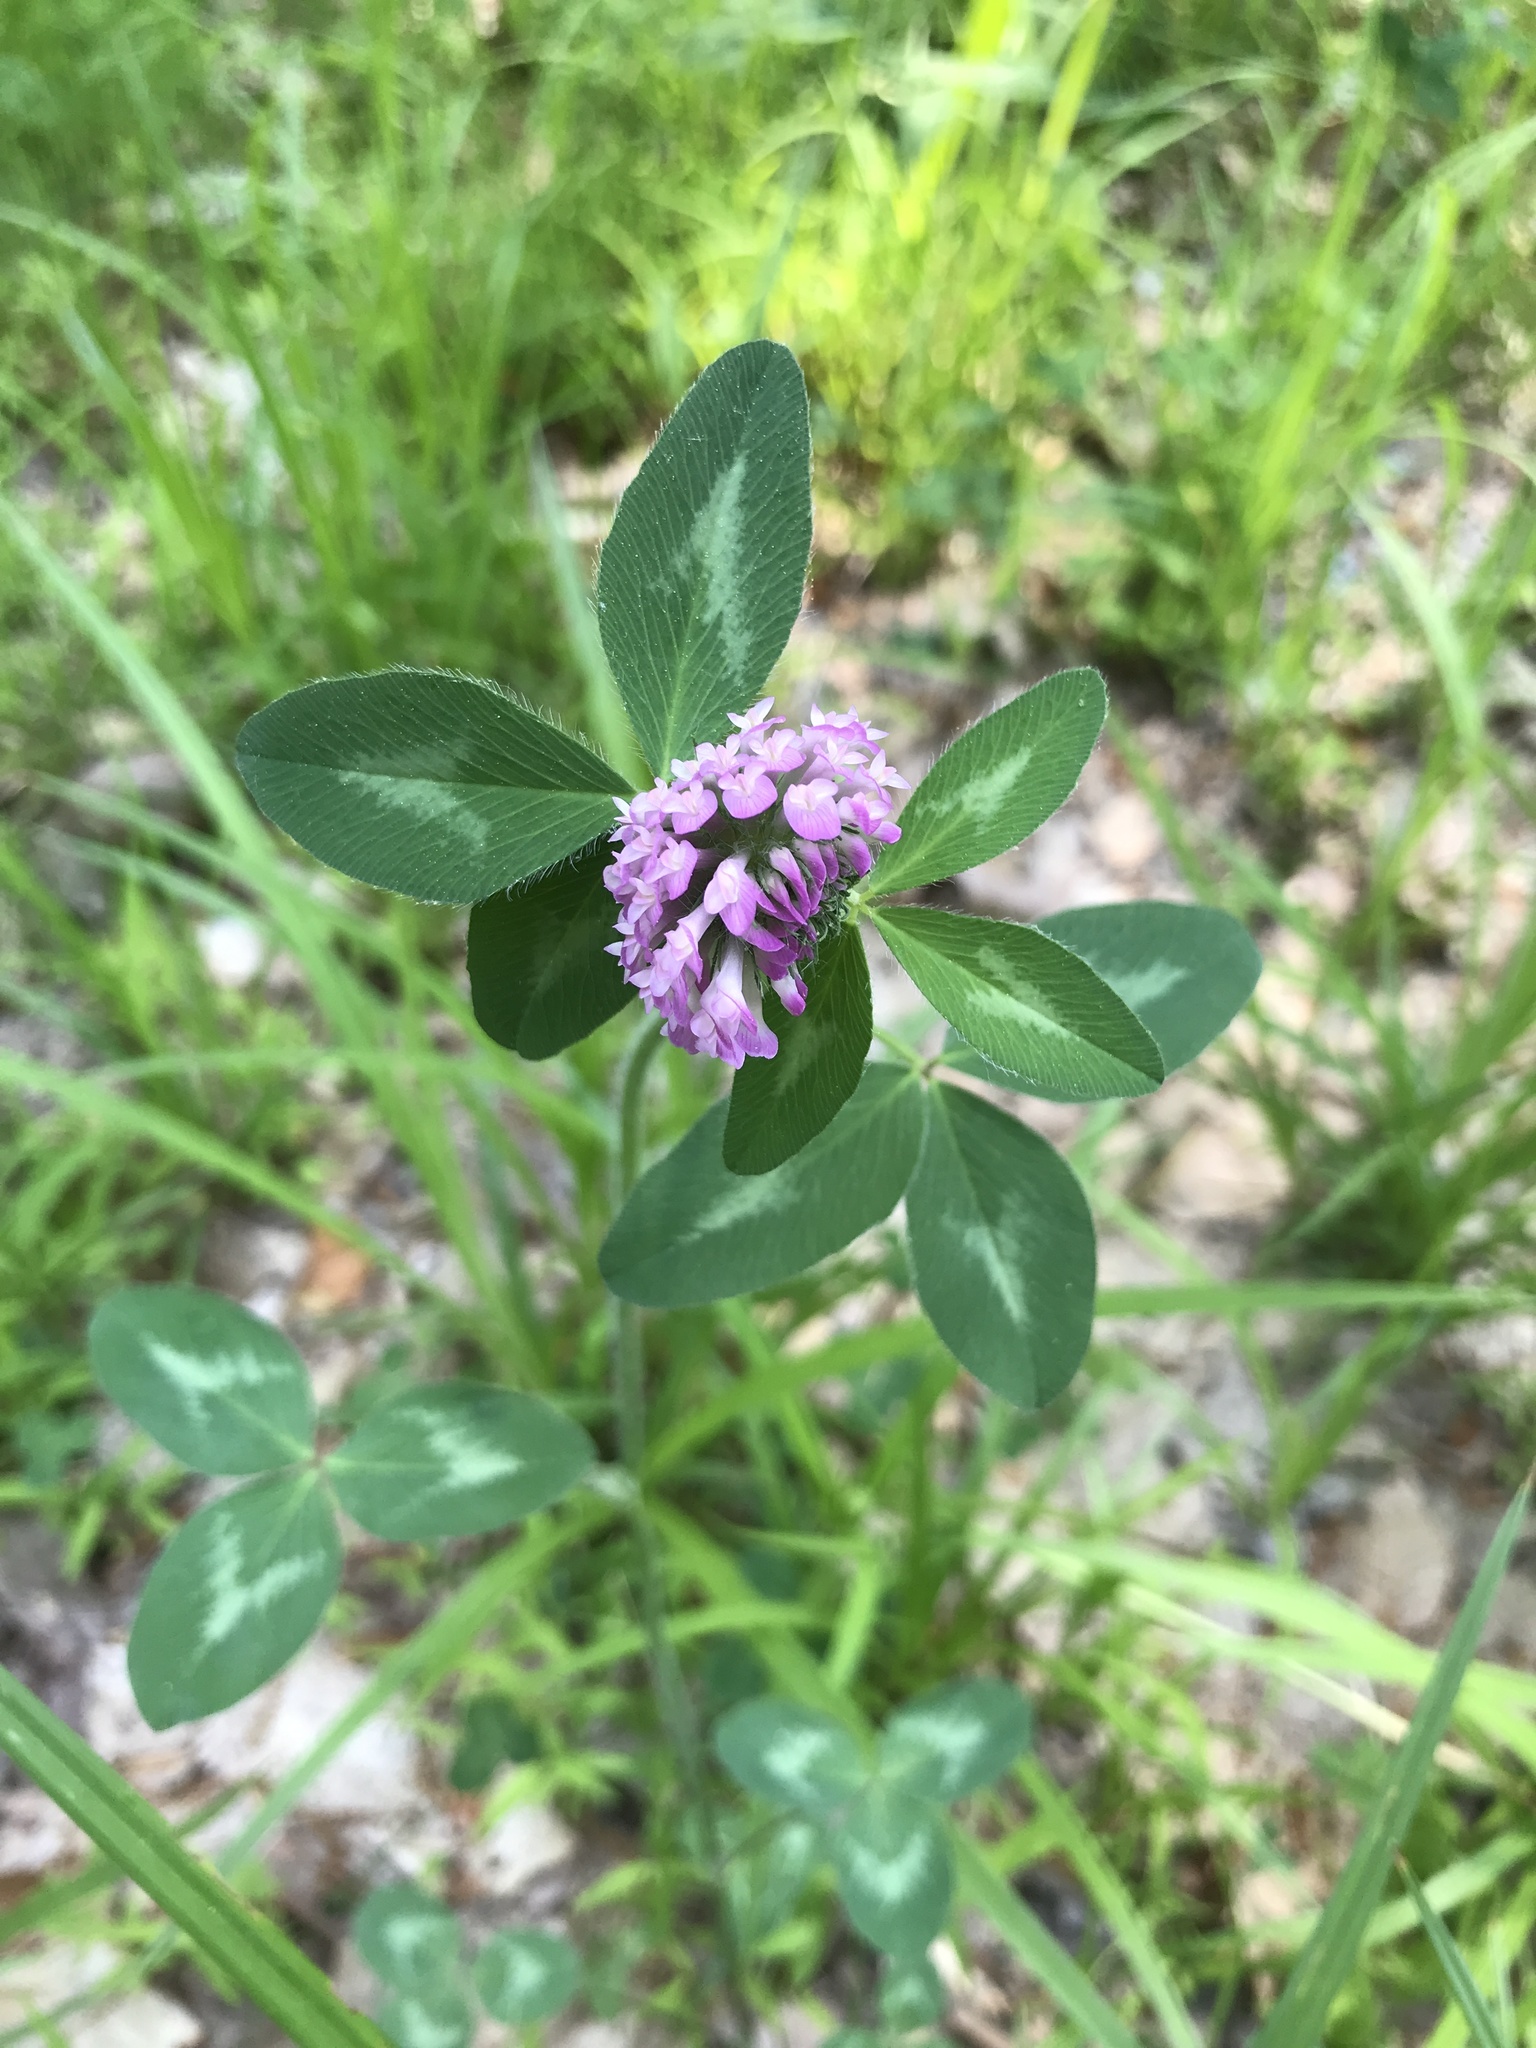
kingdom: Plantae
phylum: Tracheophyta
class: Magnoliopsida
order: Fabales
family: Fabaceae
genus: Trifolium
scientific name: Trifolium pratense
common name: Red clover
